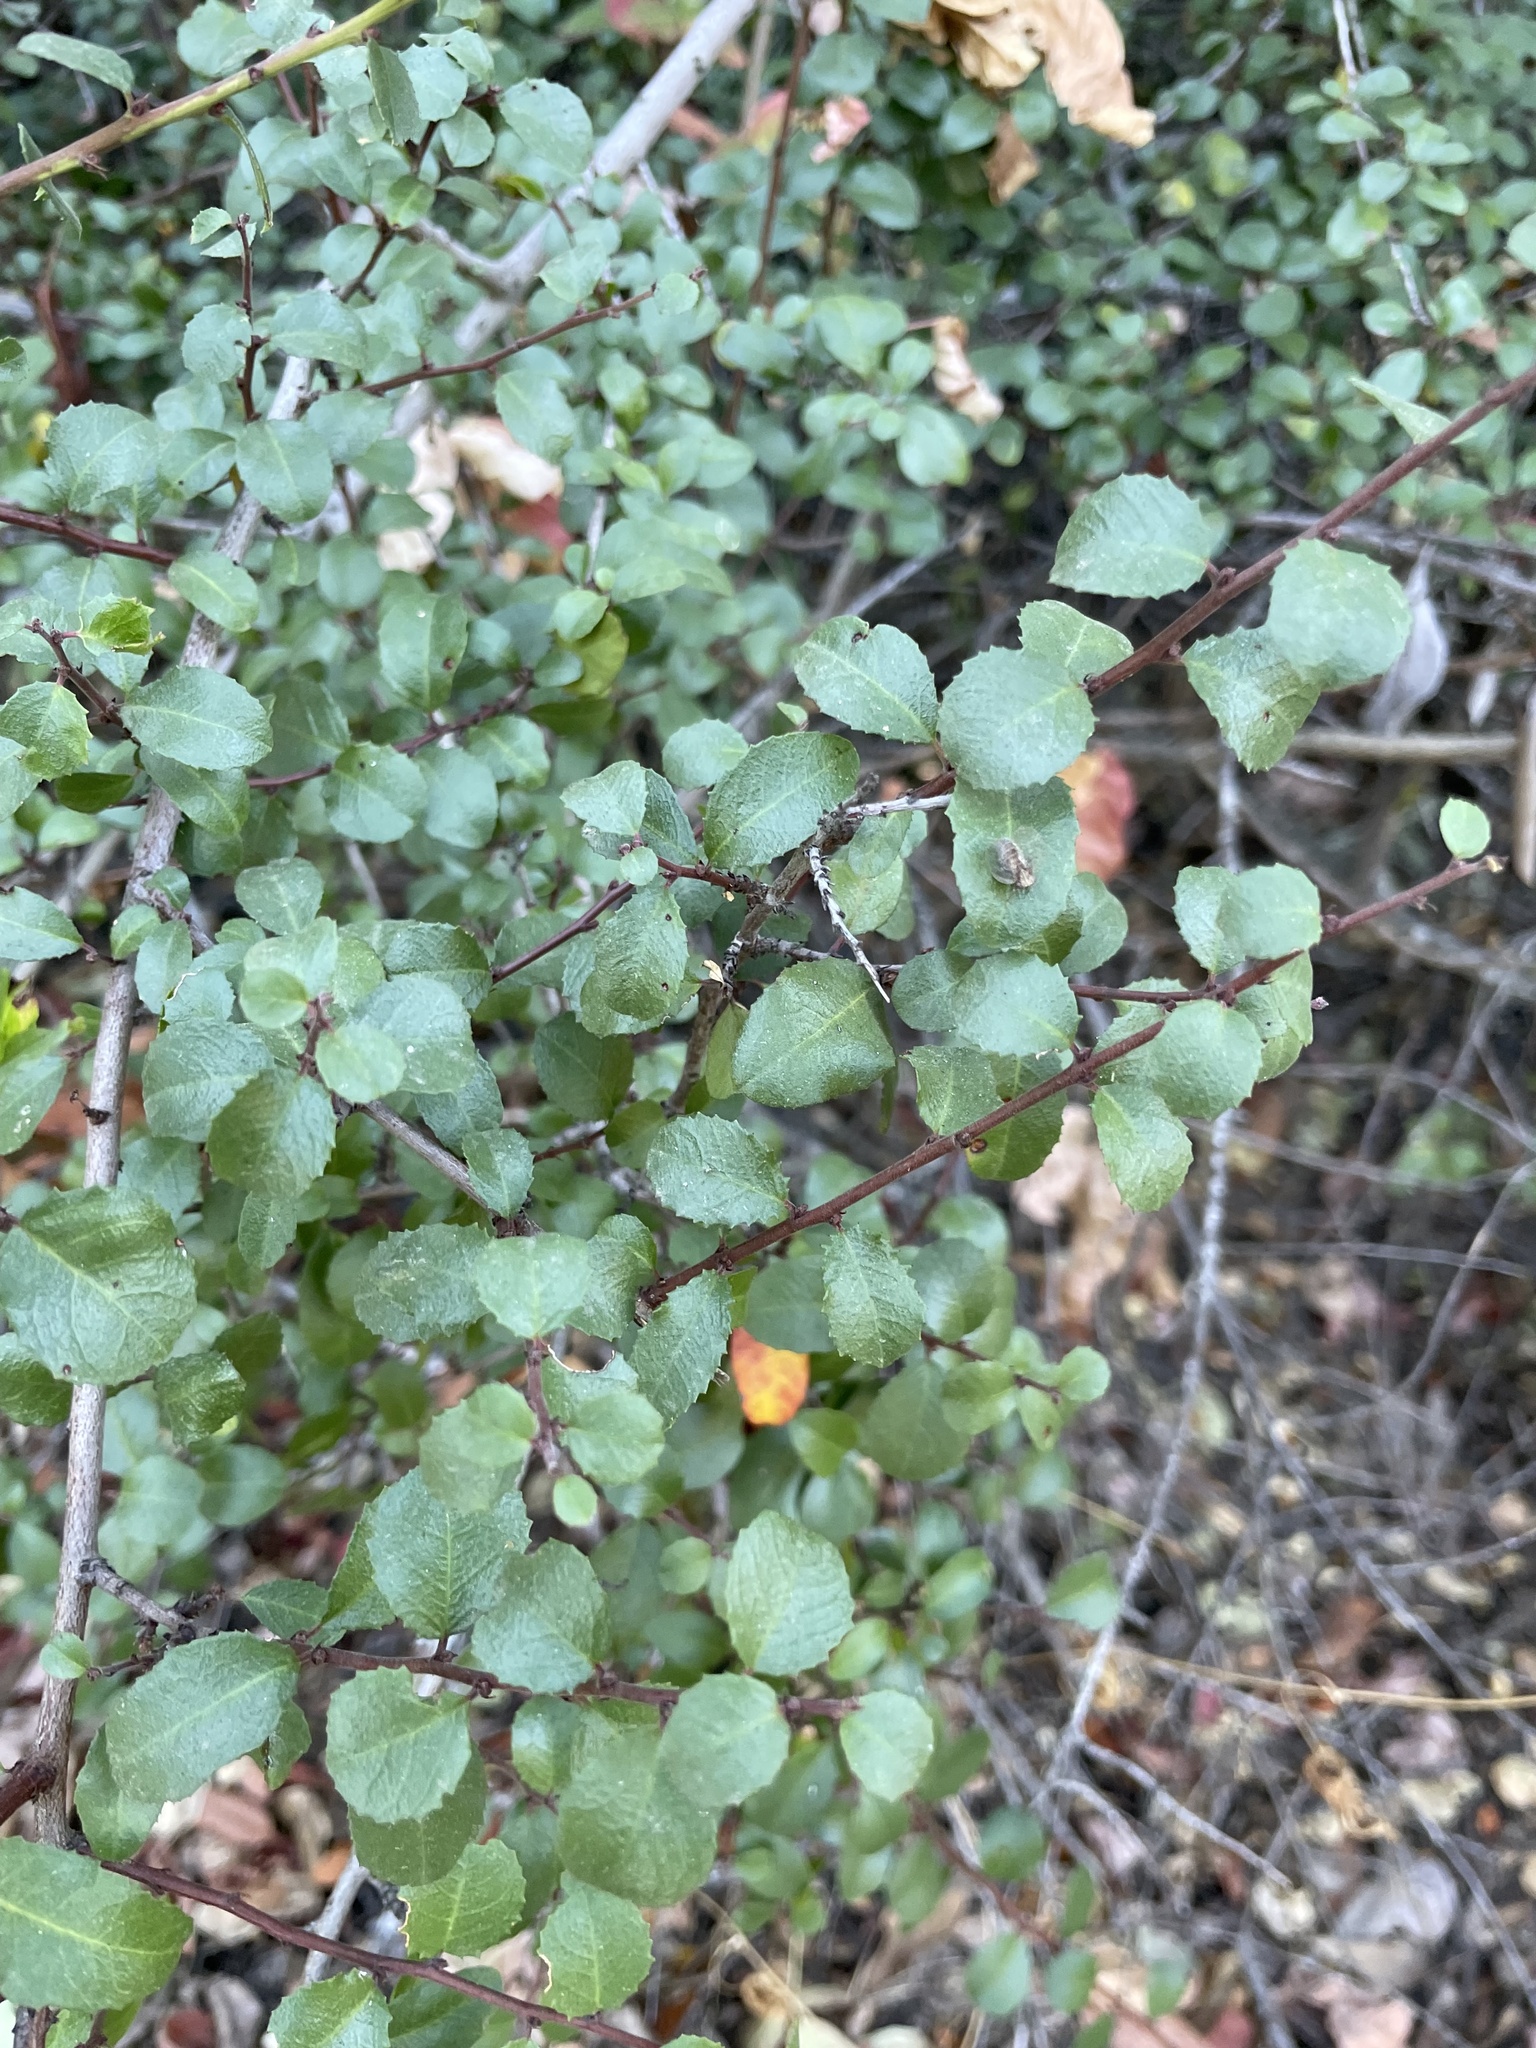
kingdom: Plantae
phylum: Tracheophyta
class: Magnoliopsida
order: Rosales
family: Rhamnaceae
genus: Endotropis
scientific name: Endotropis crocea
